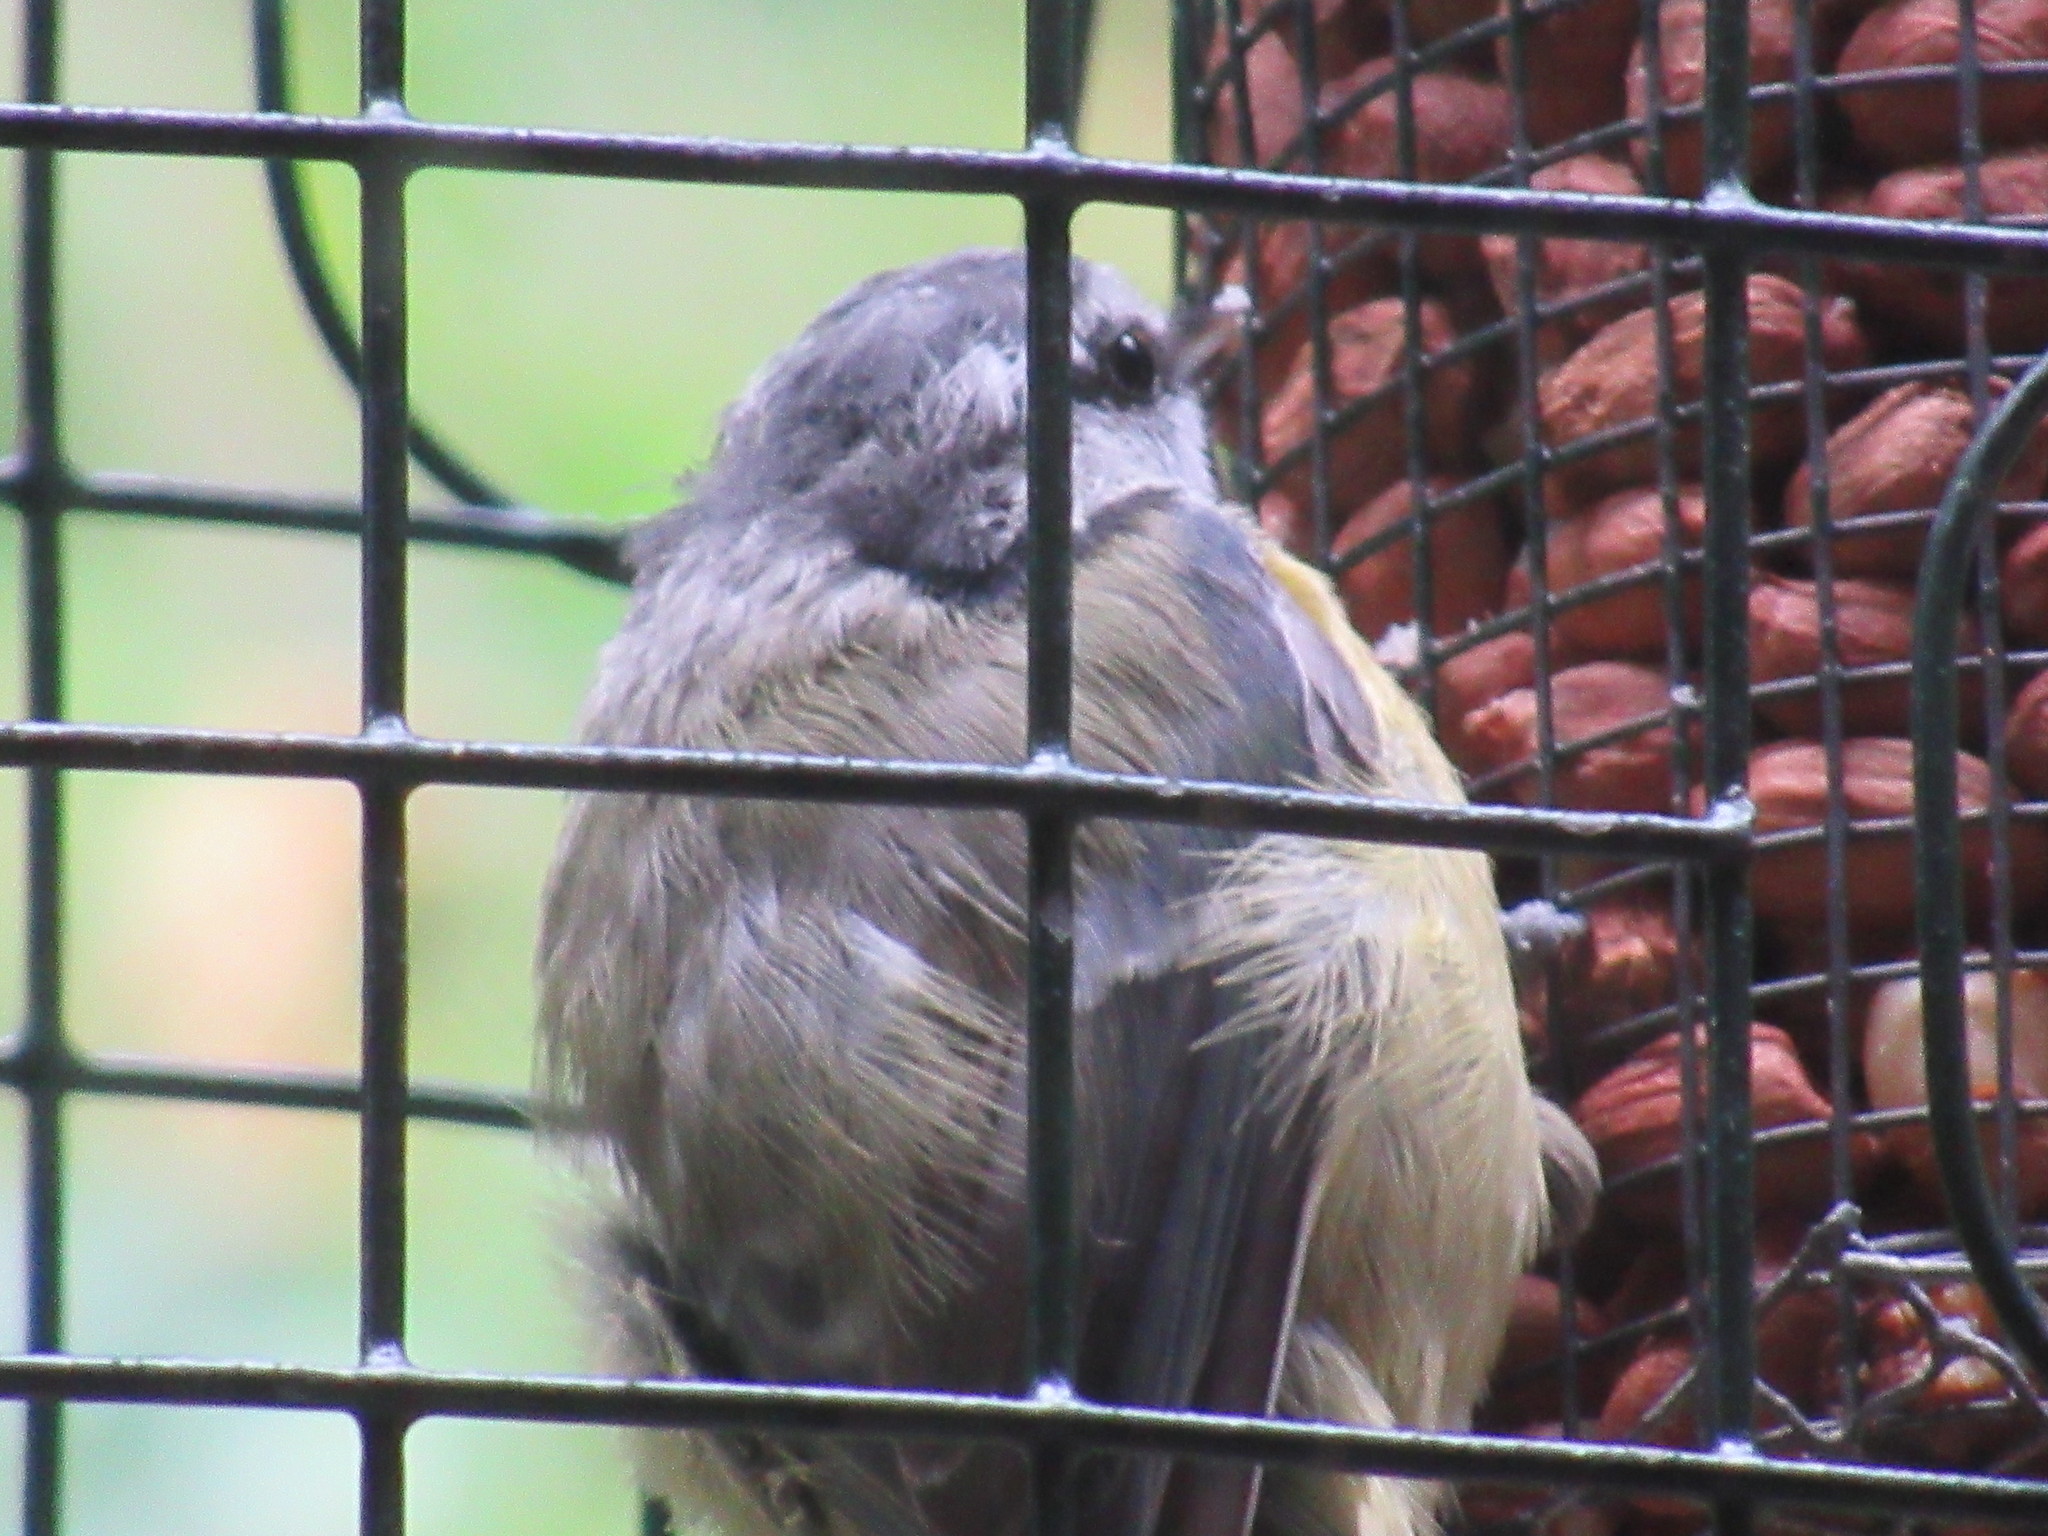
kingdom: Animalia
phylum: Chordata
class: Aves
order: Passeriformes
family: Paridae
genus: Cyanistes
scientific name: Cyanistes caeruleus
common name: Eurasian blue tit
